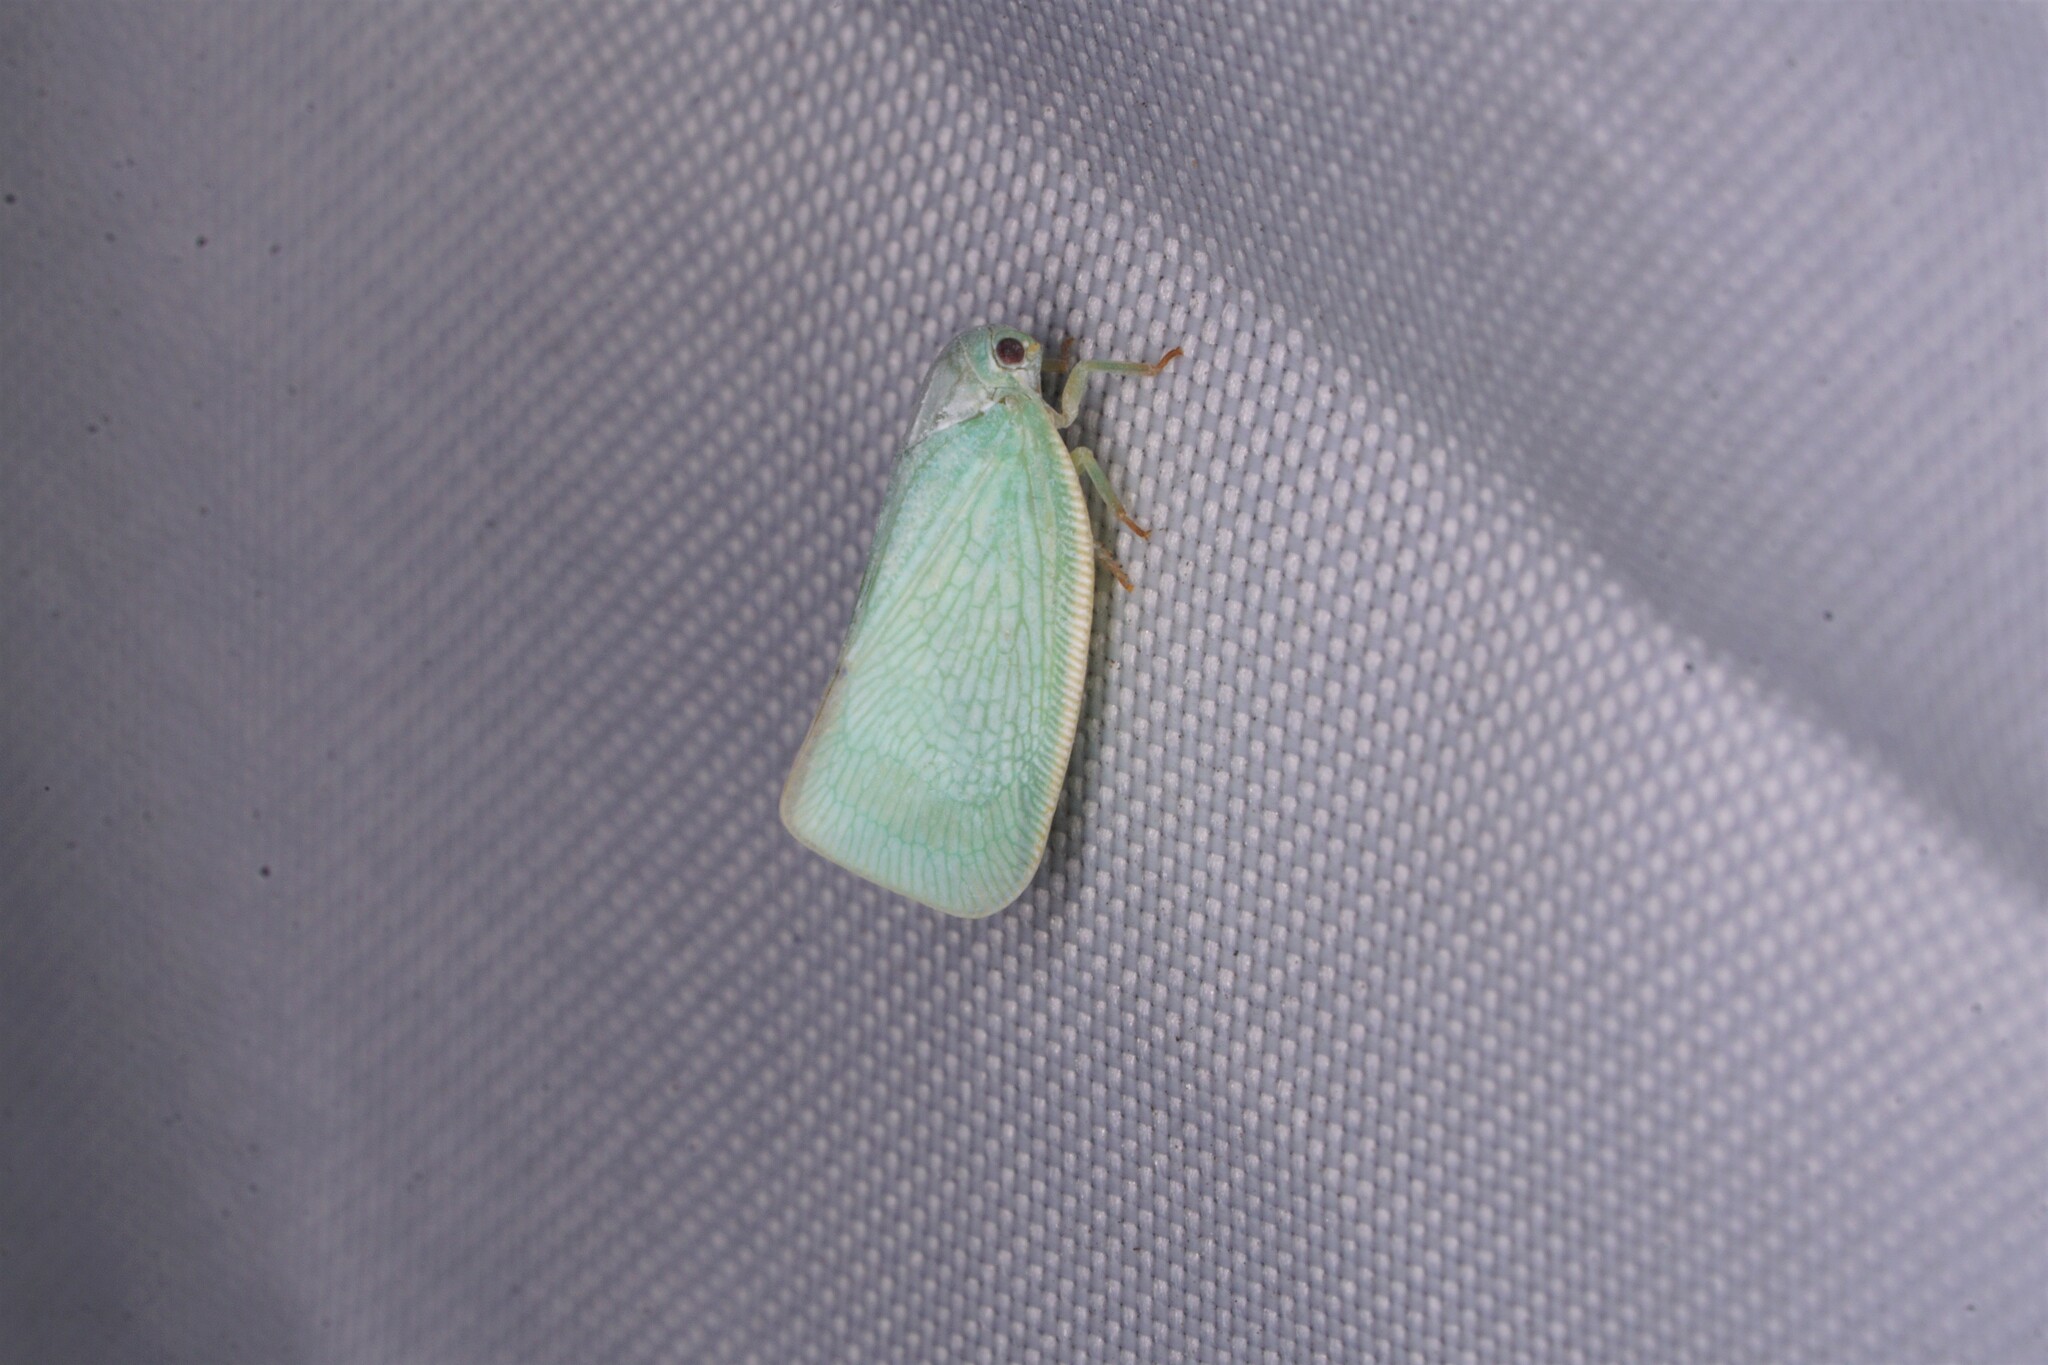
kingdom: Animalia
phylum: Arthropoda
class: Insecta
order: Hemiptera
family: Flatidae
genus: Flatormenis
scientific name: Flatormenis proxima
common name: Northern flatid planthopper
